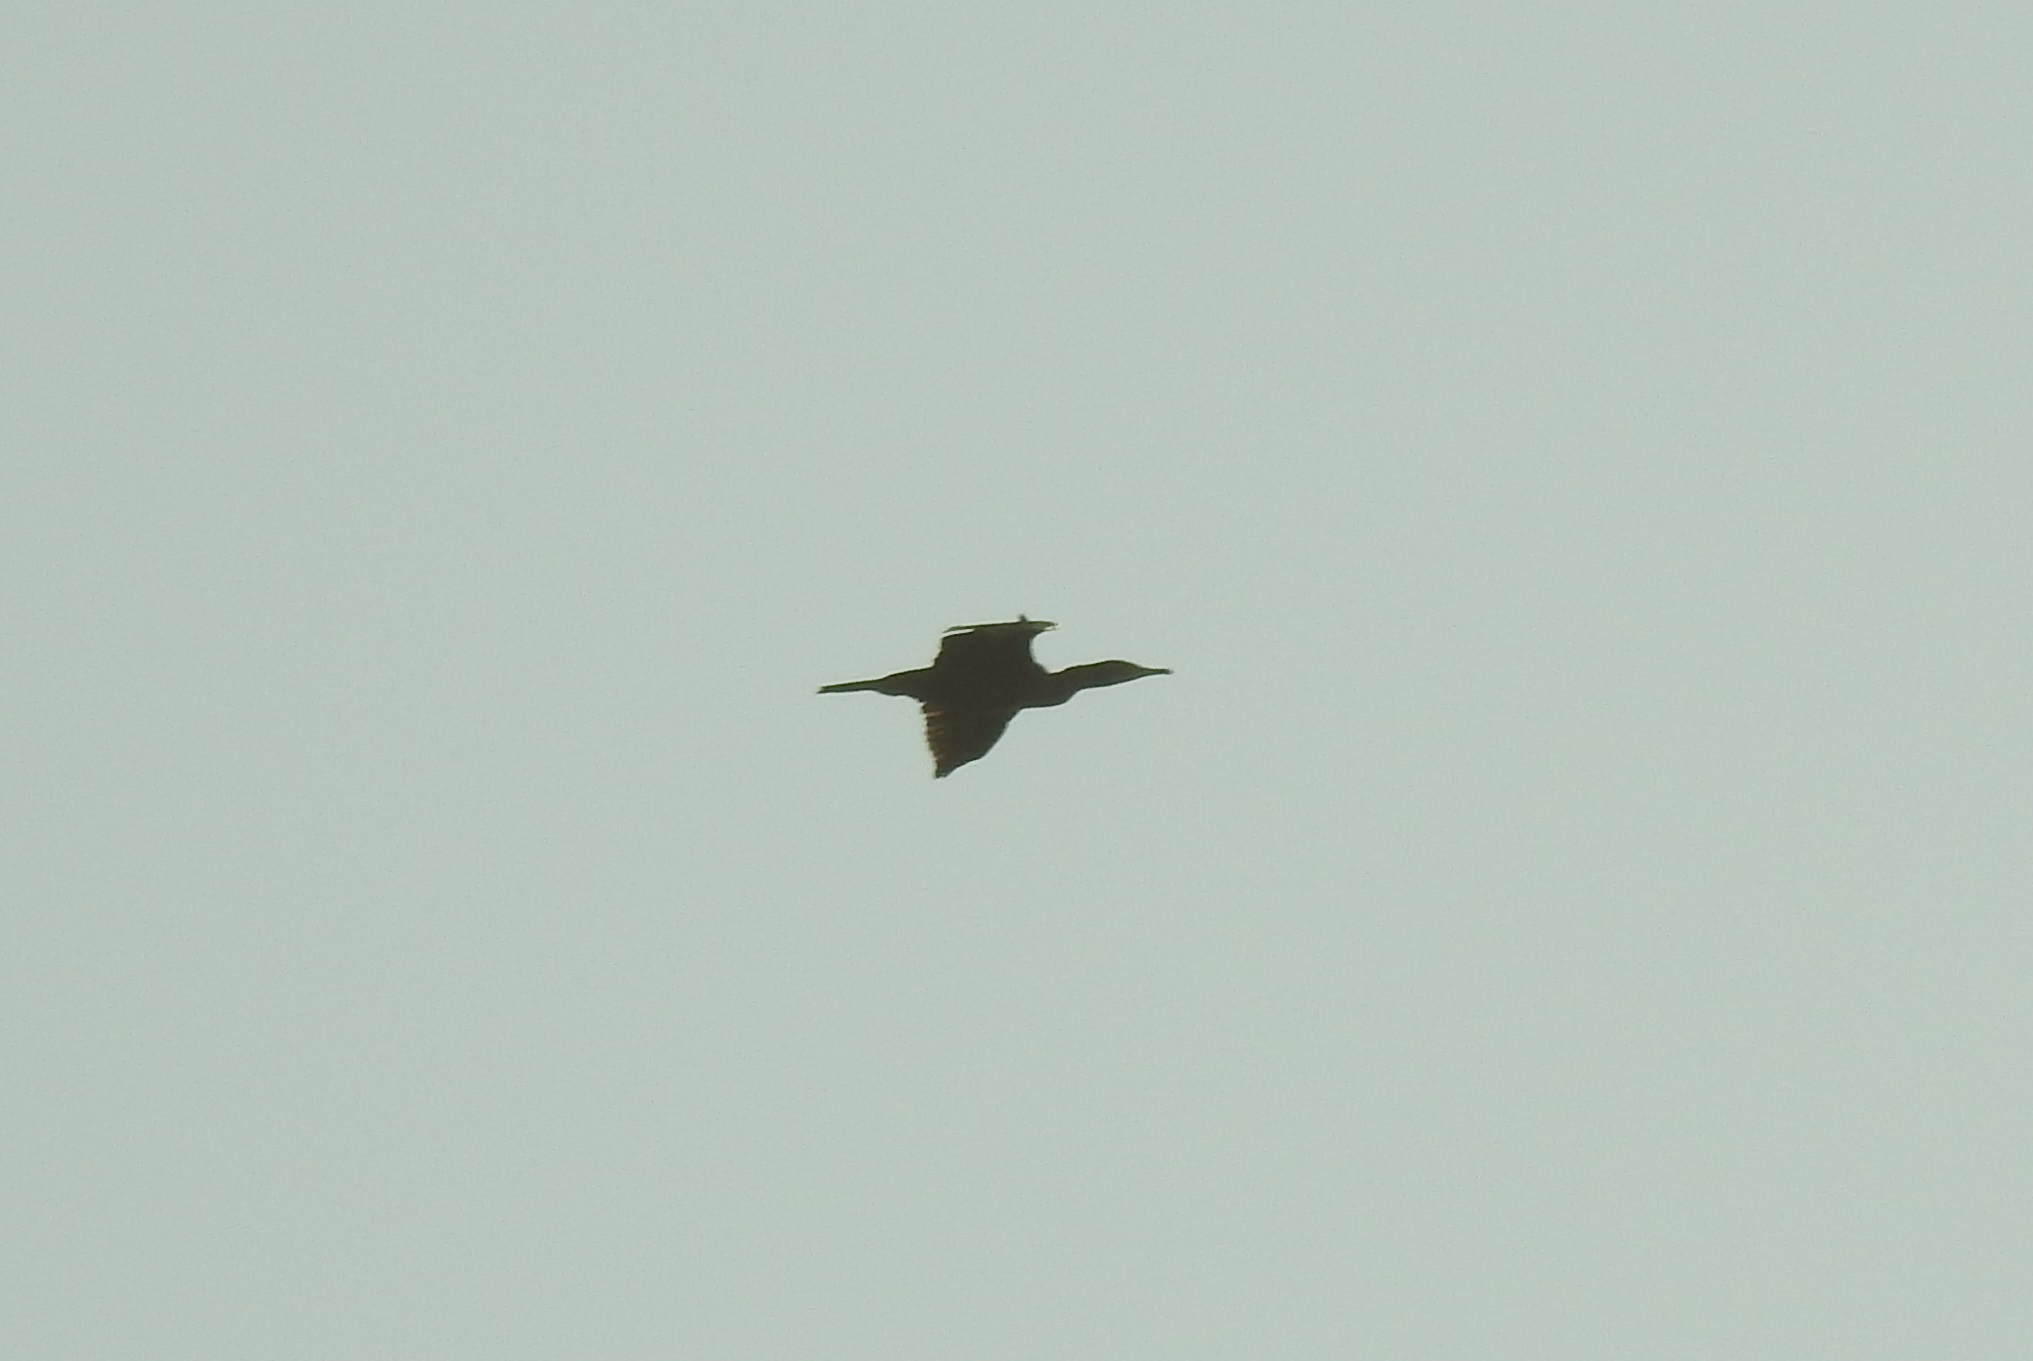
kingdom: Animalia
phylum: Chordata
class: Aves
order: Suliformes
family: Phalacrocoracidae
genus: Phalacrocorax
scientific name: Phalacrocorax carbo
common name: Great cormorant
